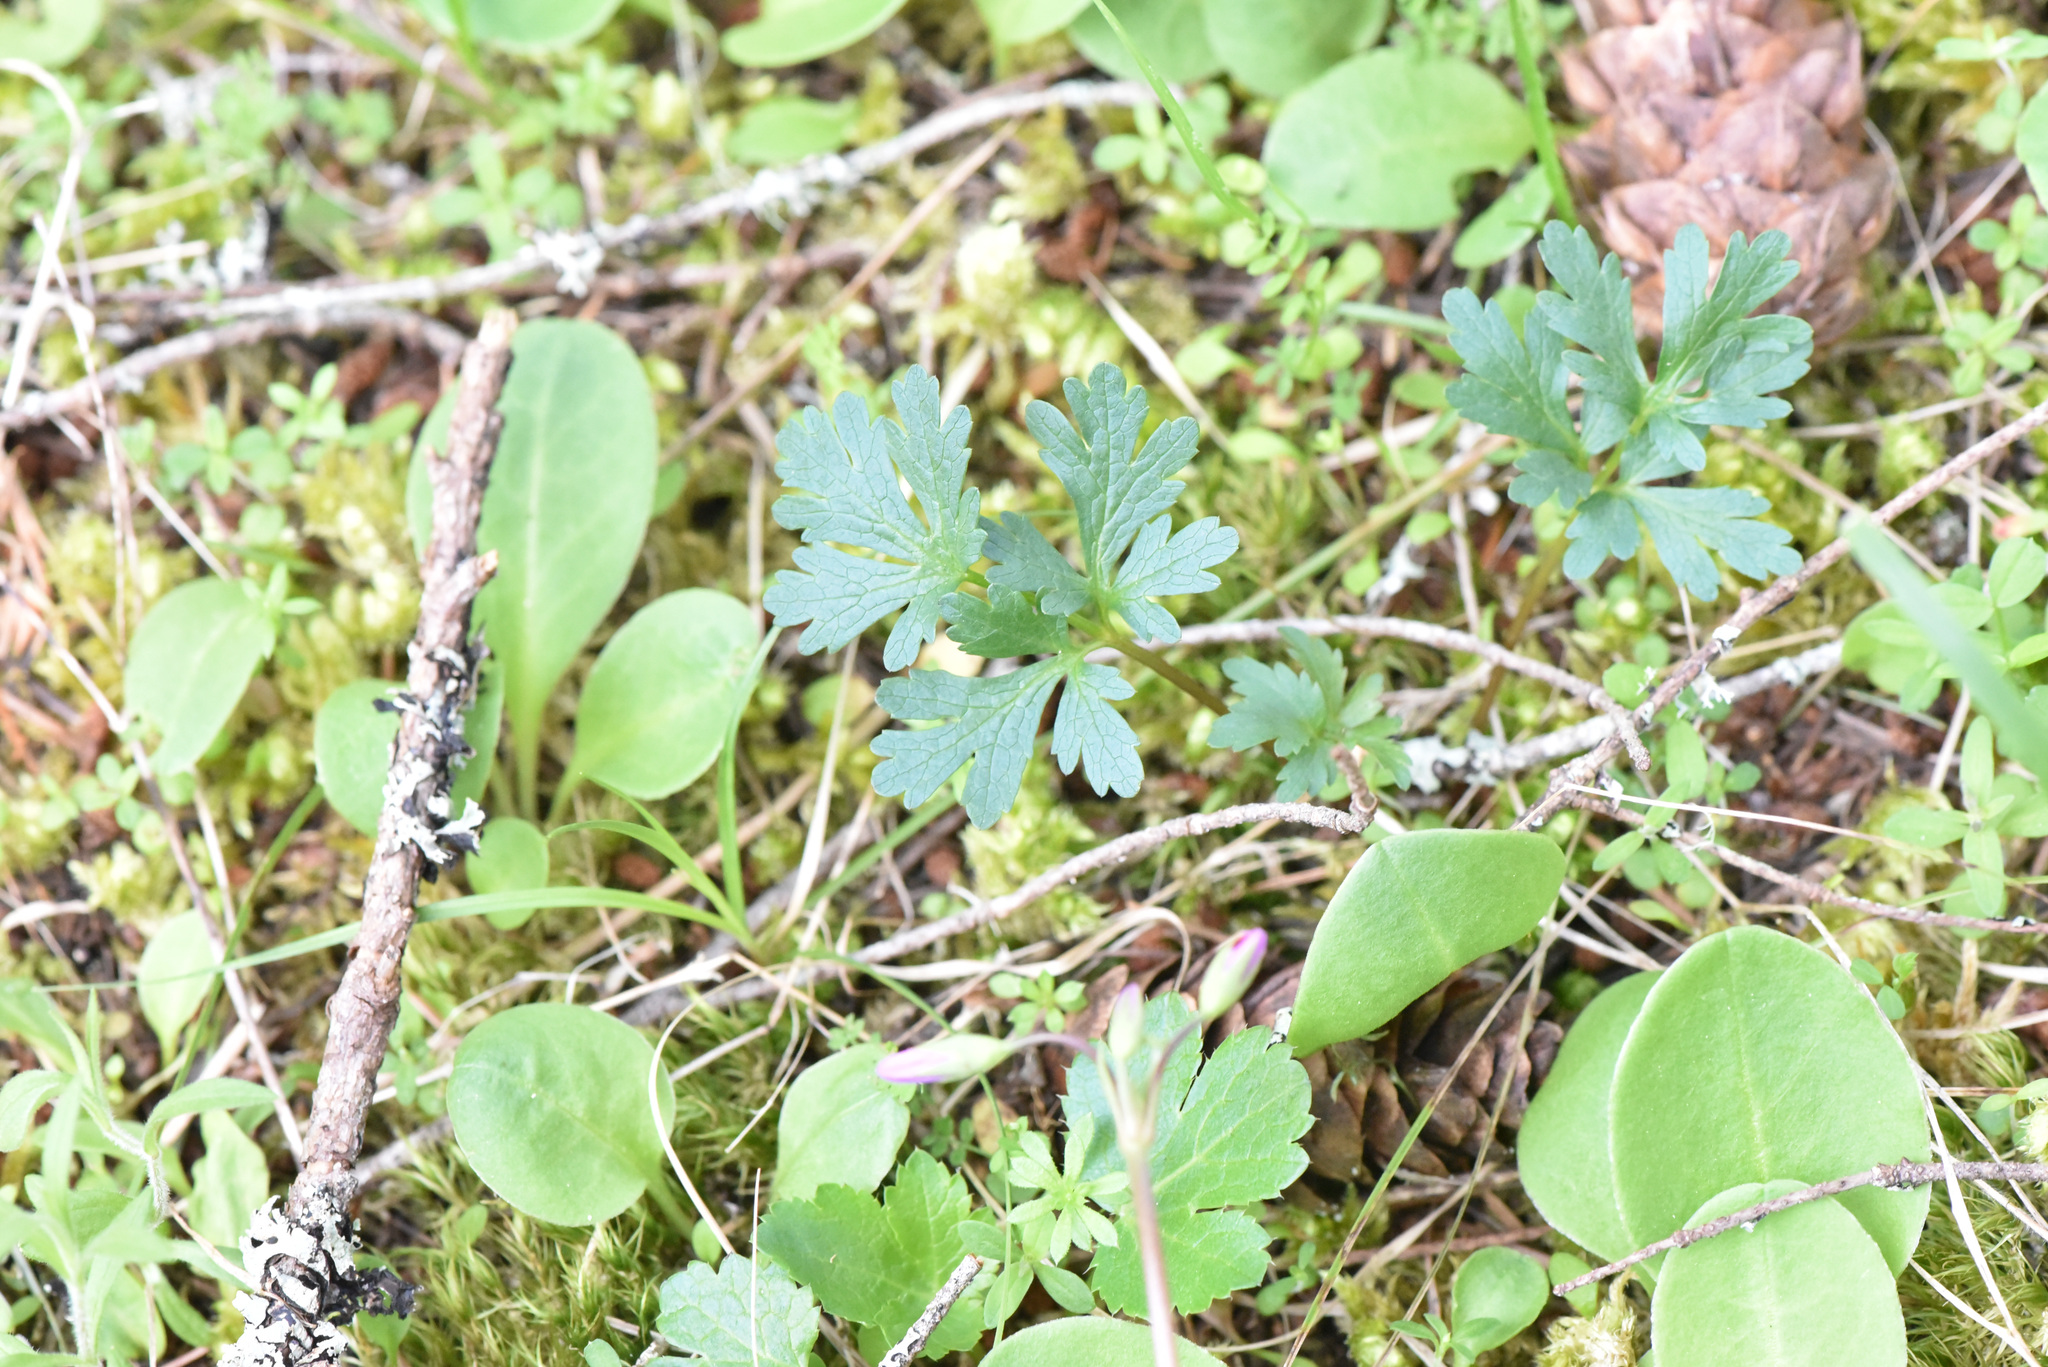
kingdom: Plantae
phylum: Tracheophyta
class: Magnoliopsida
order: Apiales
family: Apiaceae
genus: Sanicula
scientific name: Sanicula graveolens
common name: Sierra sanicle
